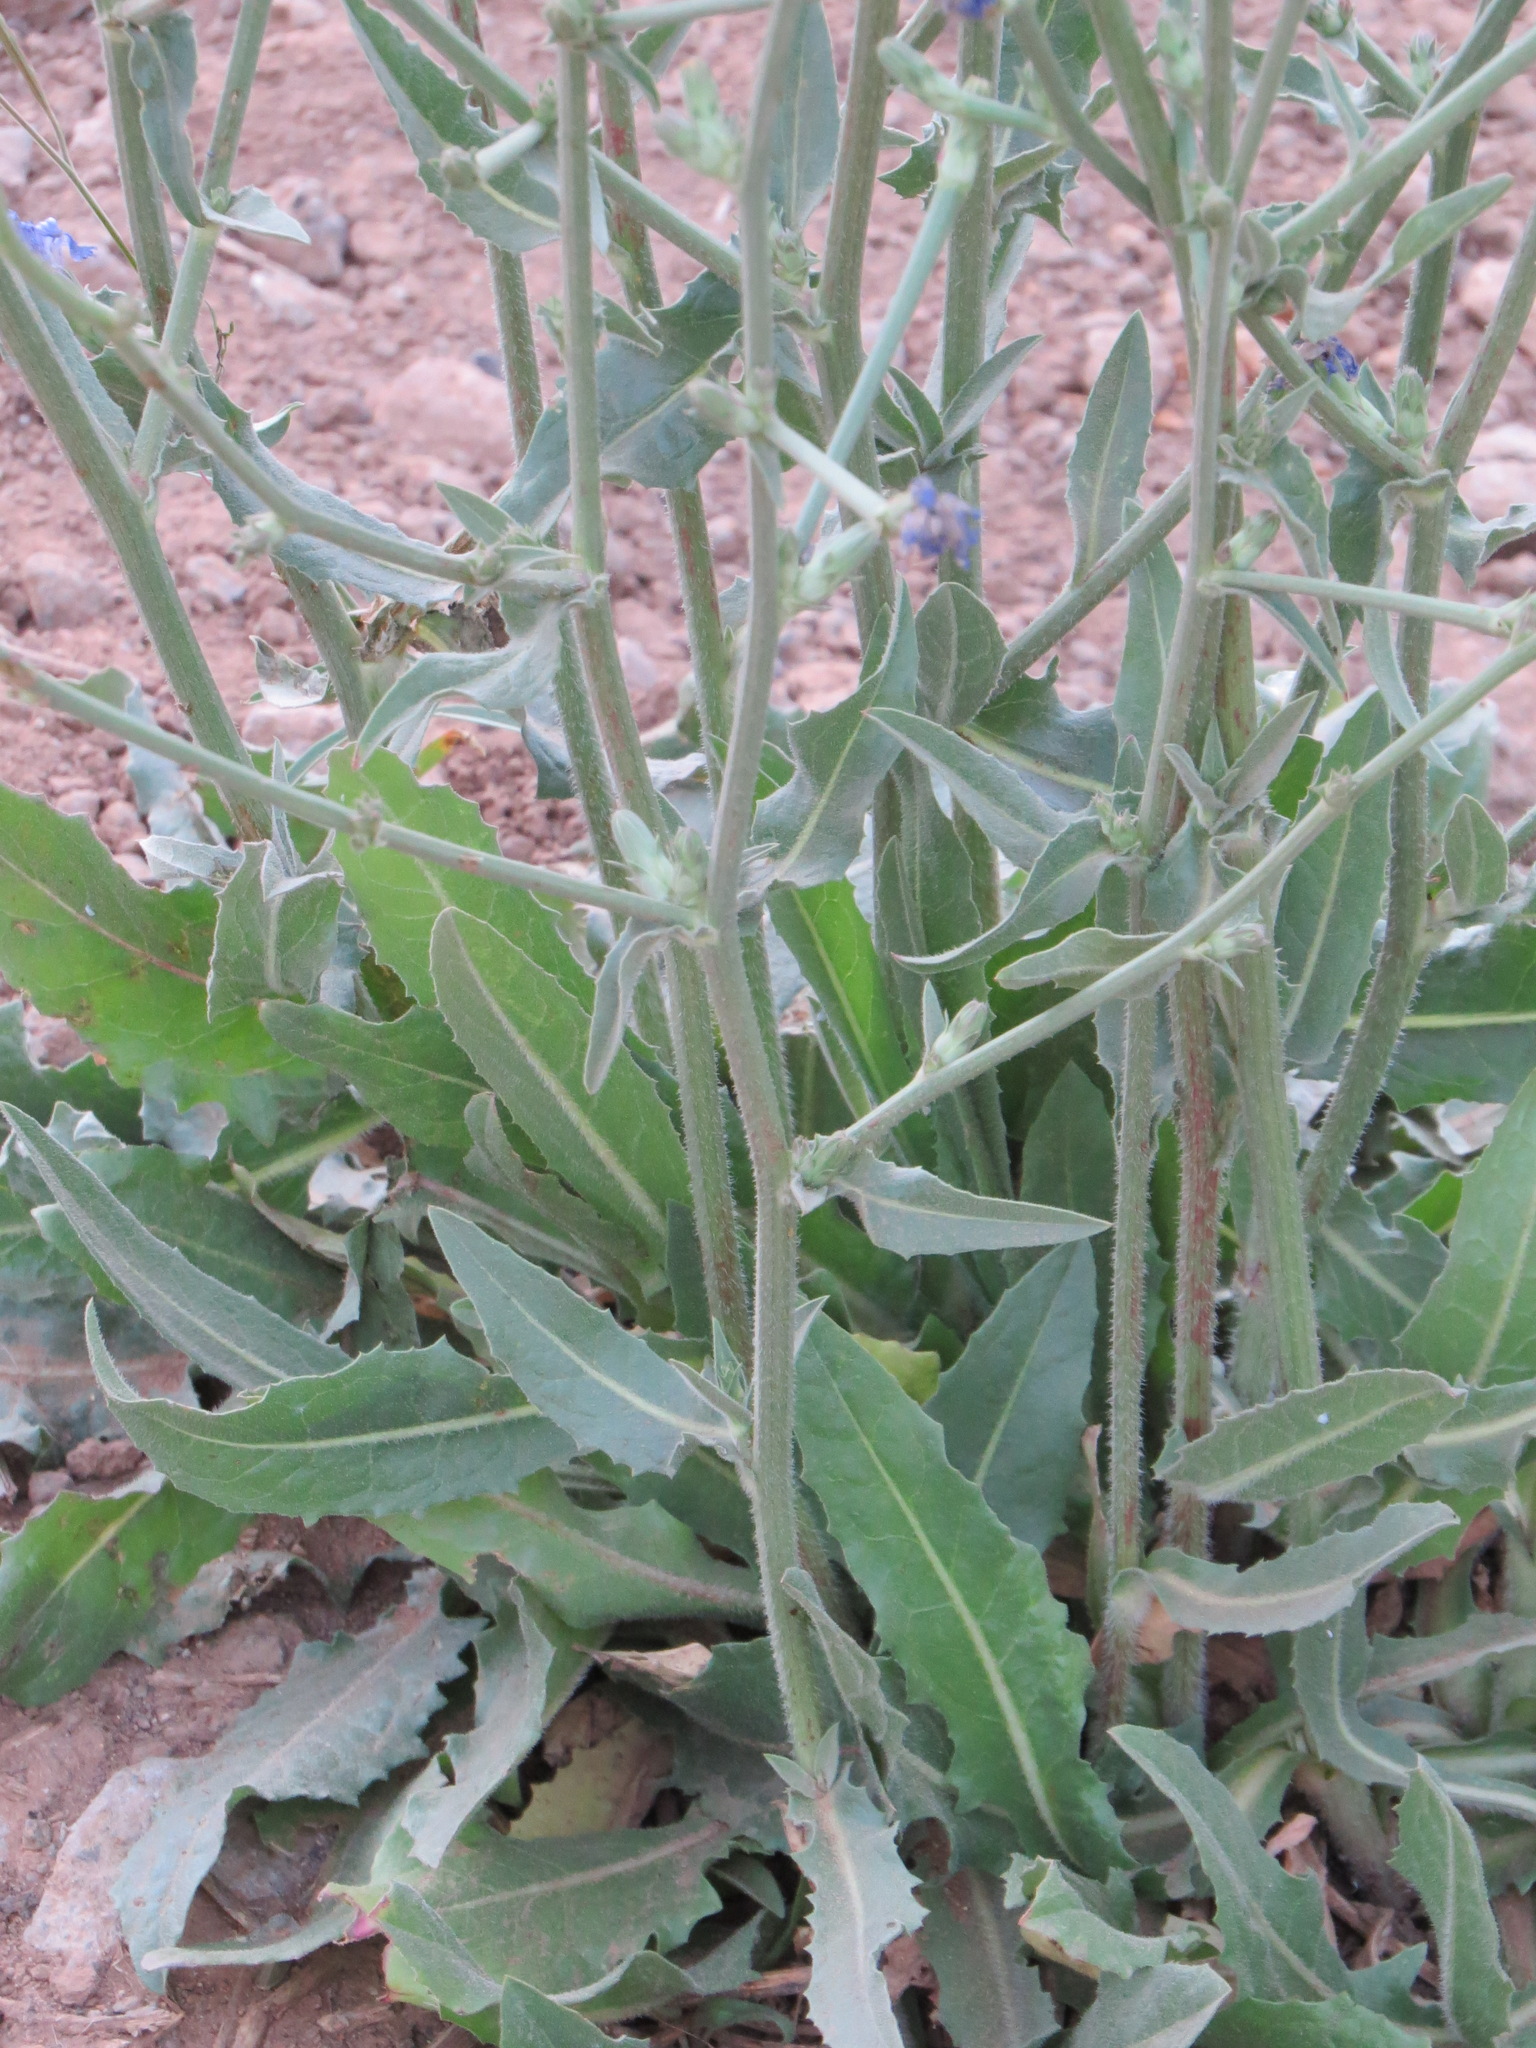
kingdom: Plantae
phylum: Tracheophyta
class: Magnoliopsida
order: Asterales
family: Asteraceae
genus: Cichorium
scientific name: Cichorium intybus
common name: Chicory
